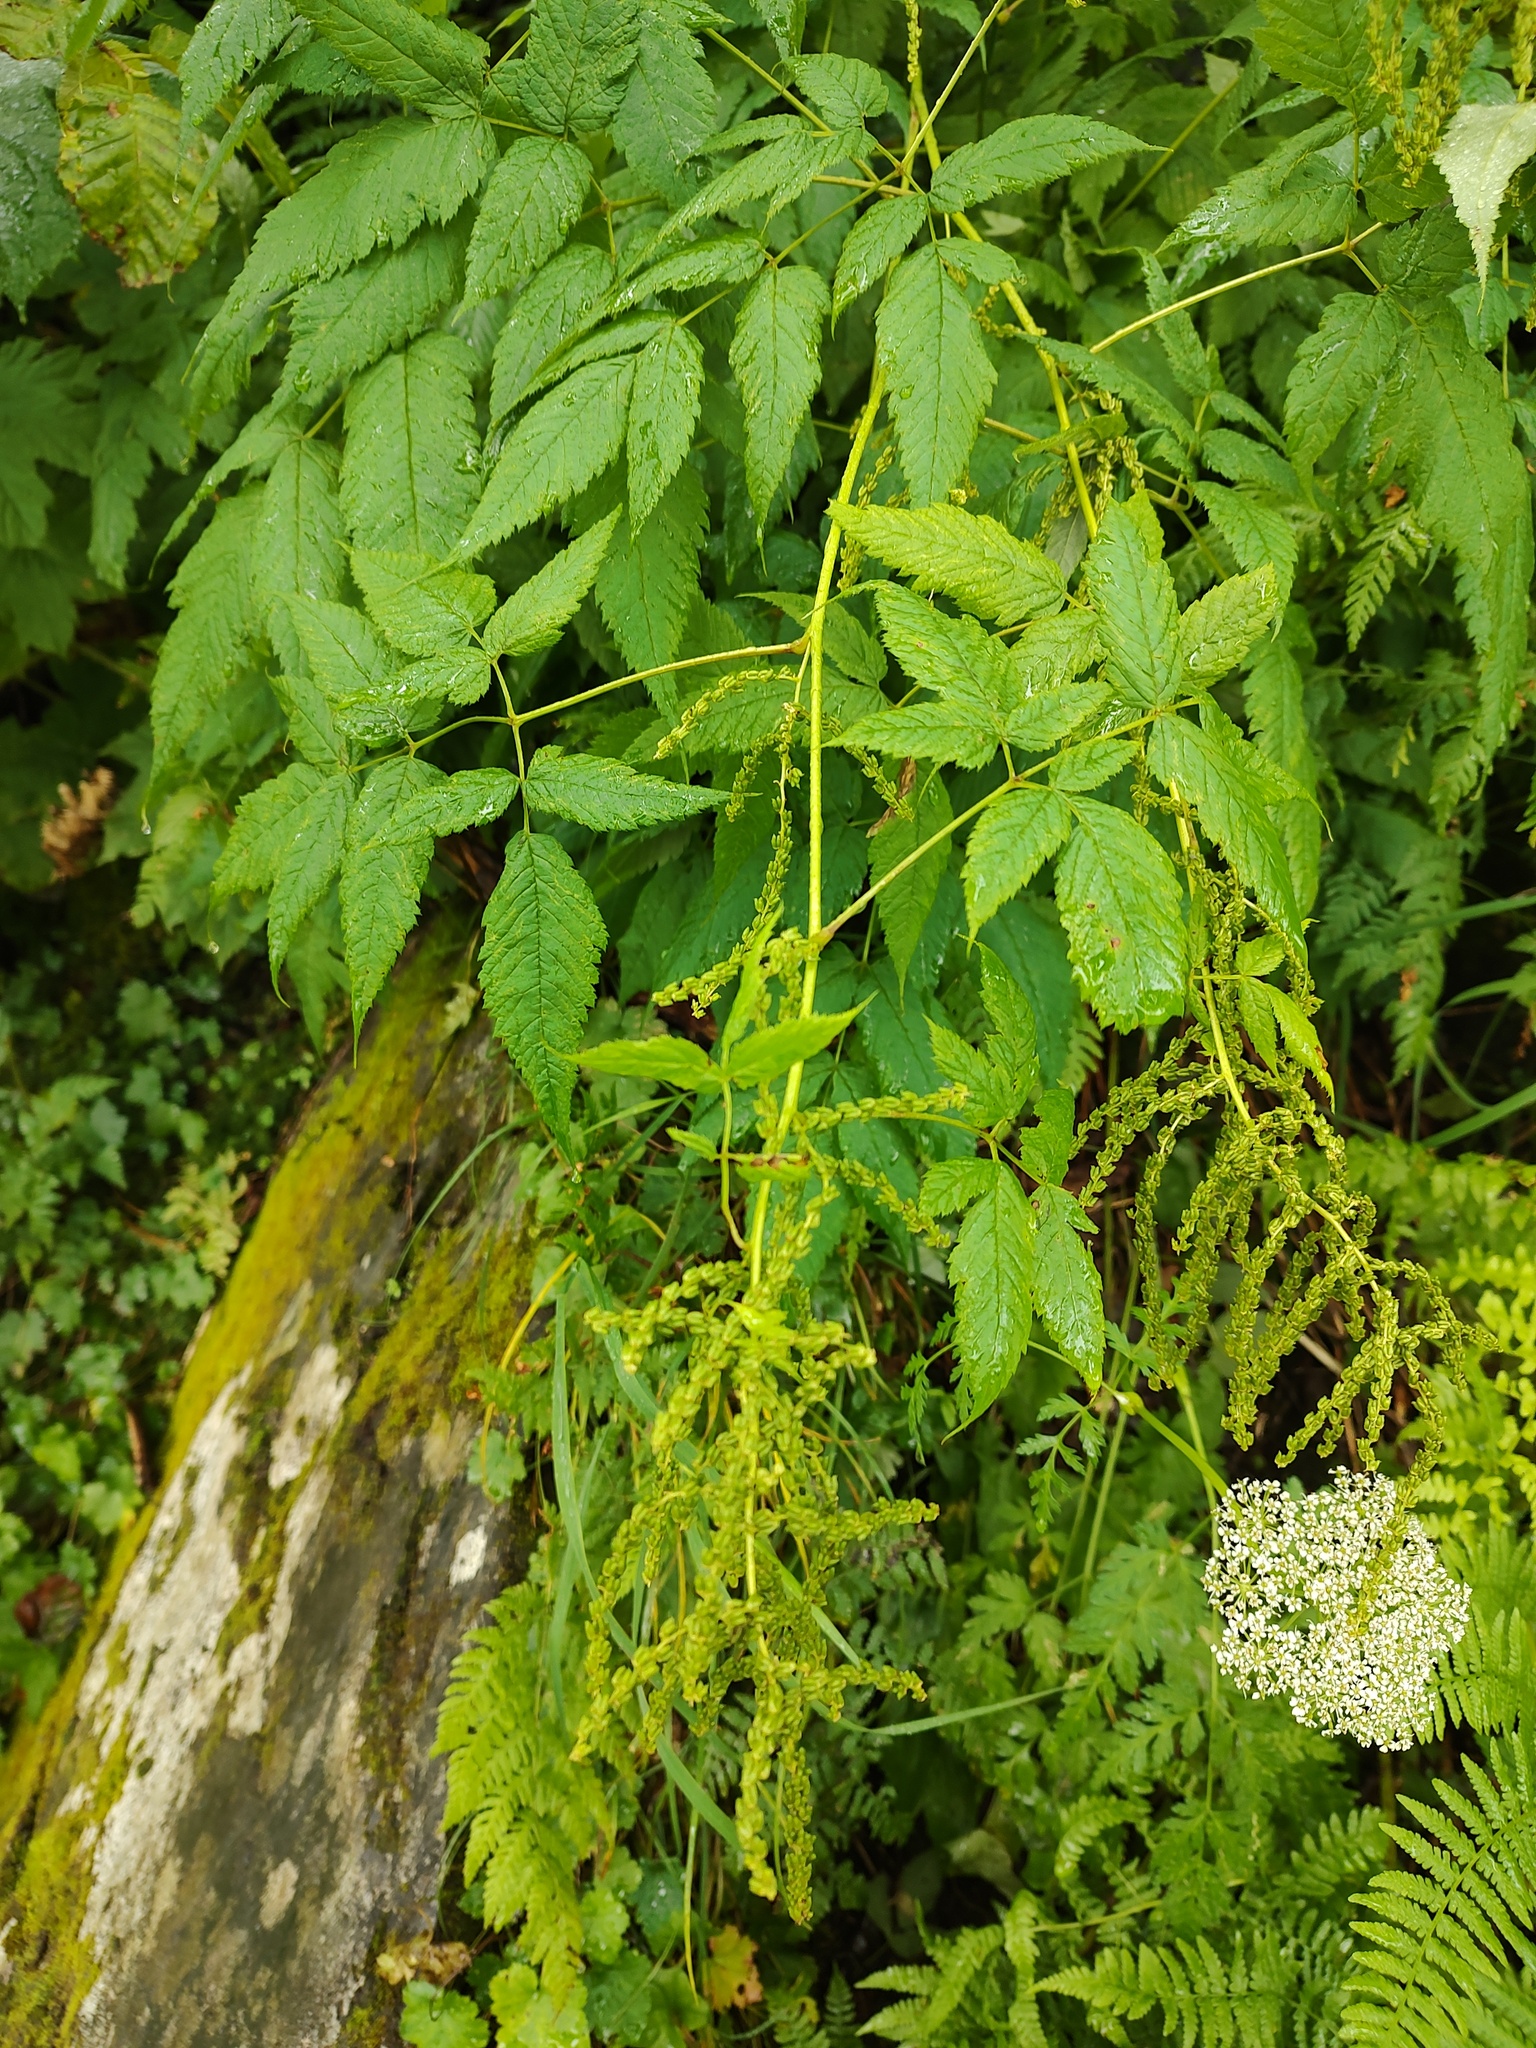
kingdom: Plantae
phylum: Tracheophyta
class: Magnoliopsida
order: Rosales
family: Rosaceae
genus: Aruncus
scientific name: Aruncus dioicus
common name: Buck's-beard
